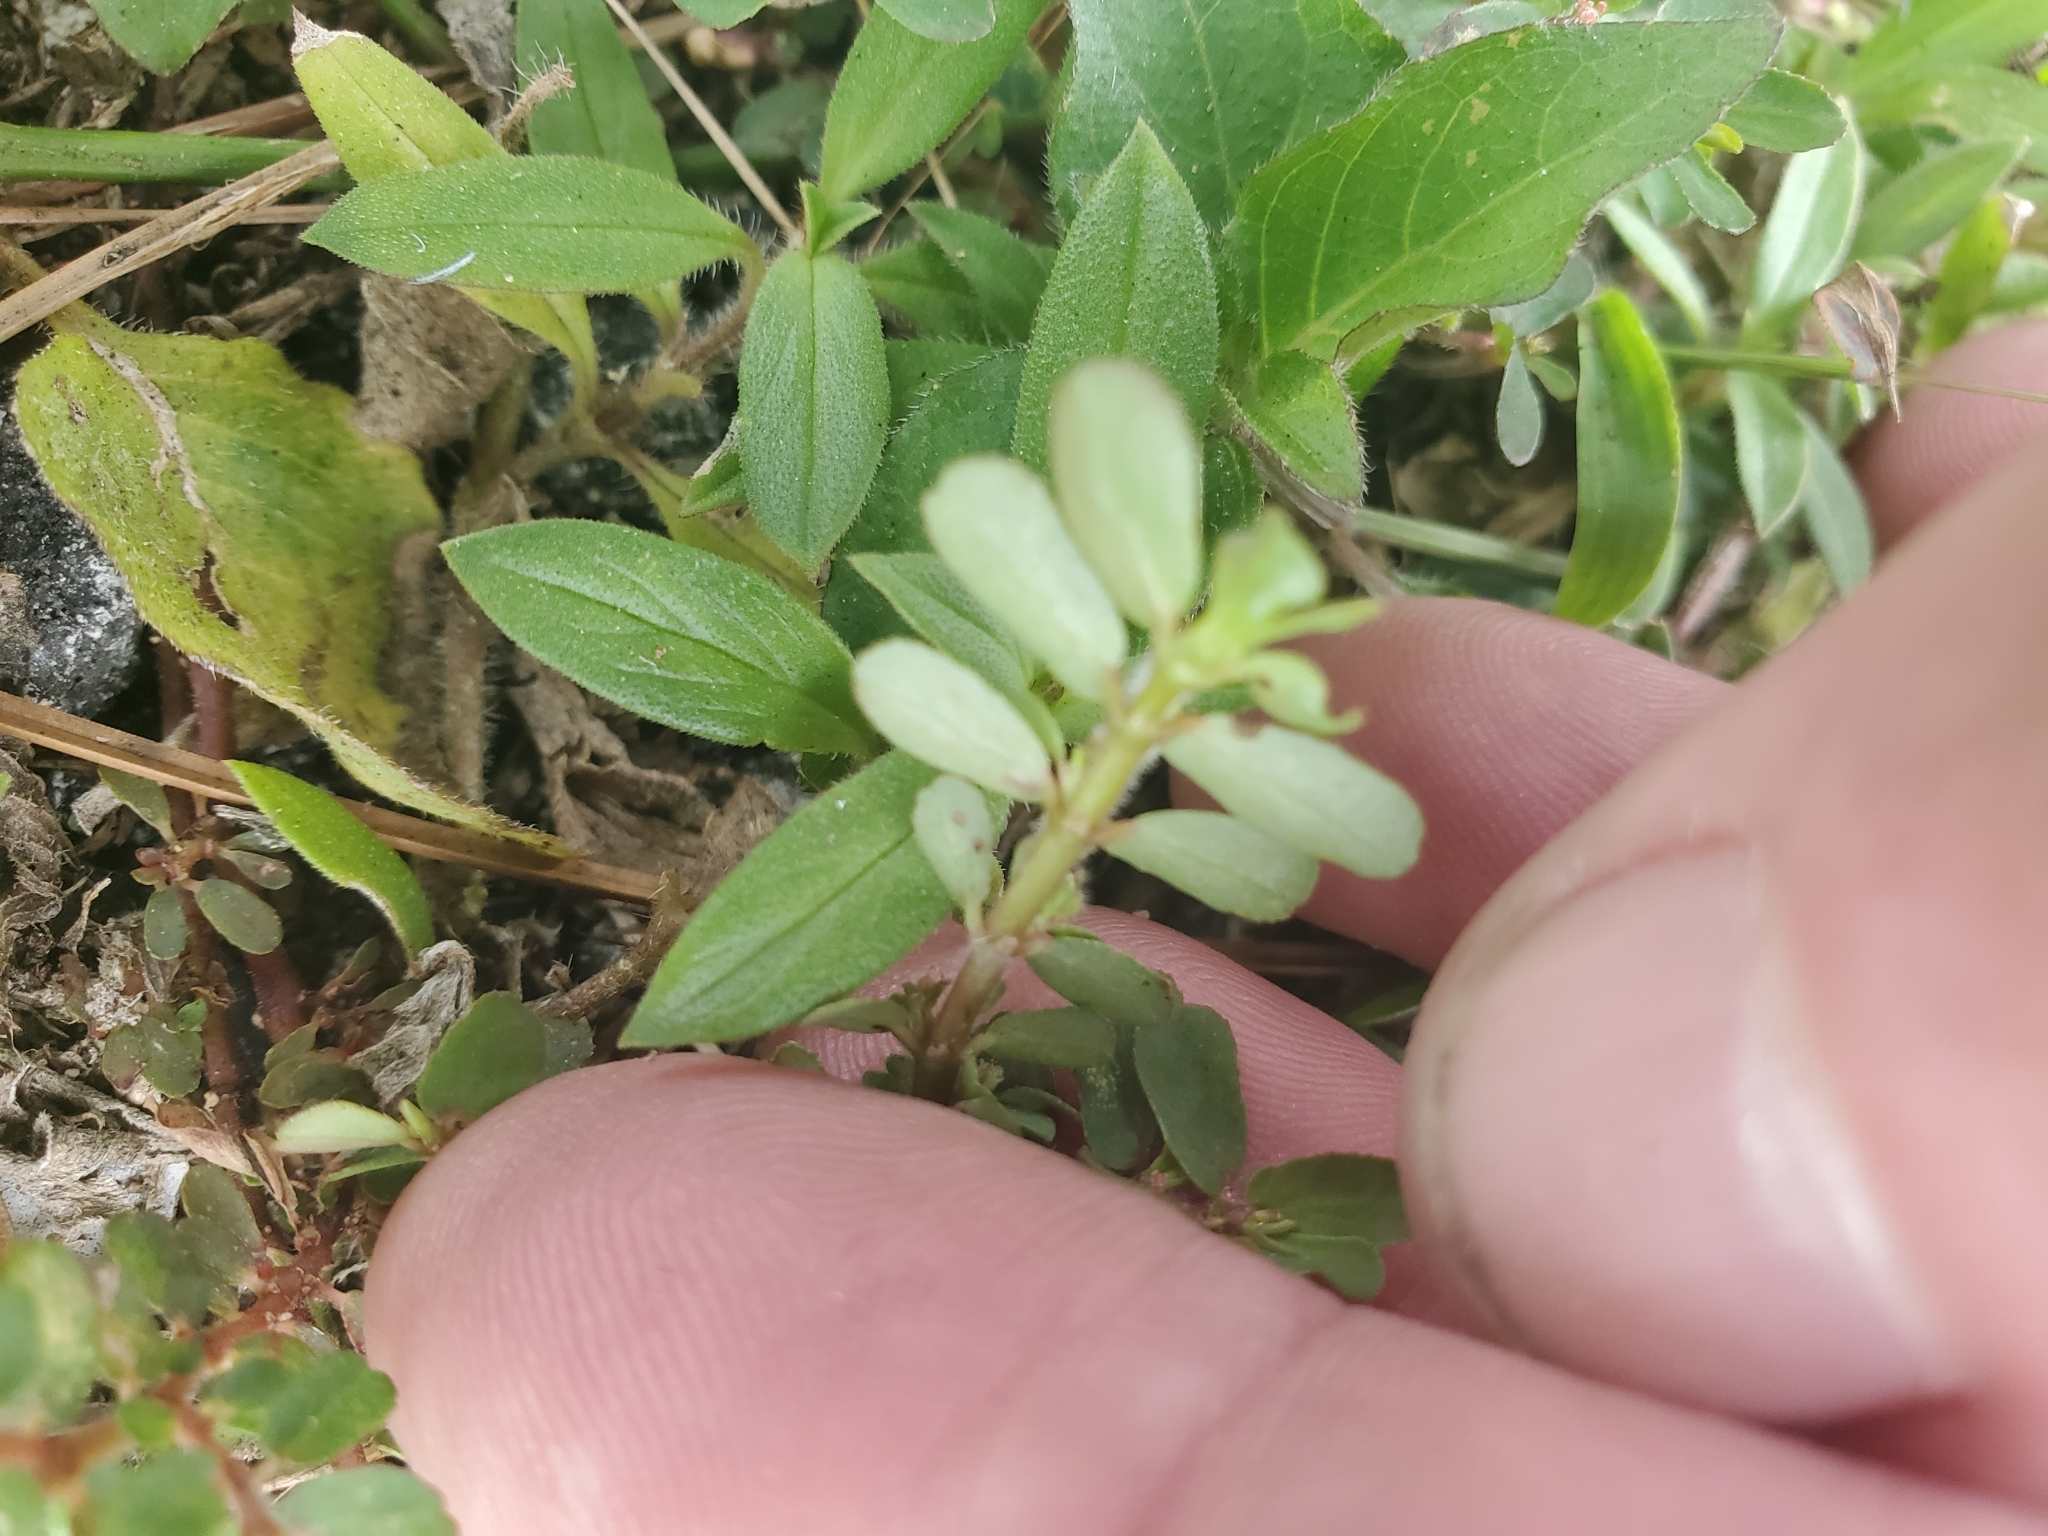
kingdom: Plantae
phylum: Tracheophyta
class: Magnoliopsida
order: Malpighiales
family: Euphorbiaceae
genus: Euphorbia
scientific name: Euphorbia mendezii
